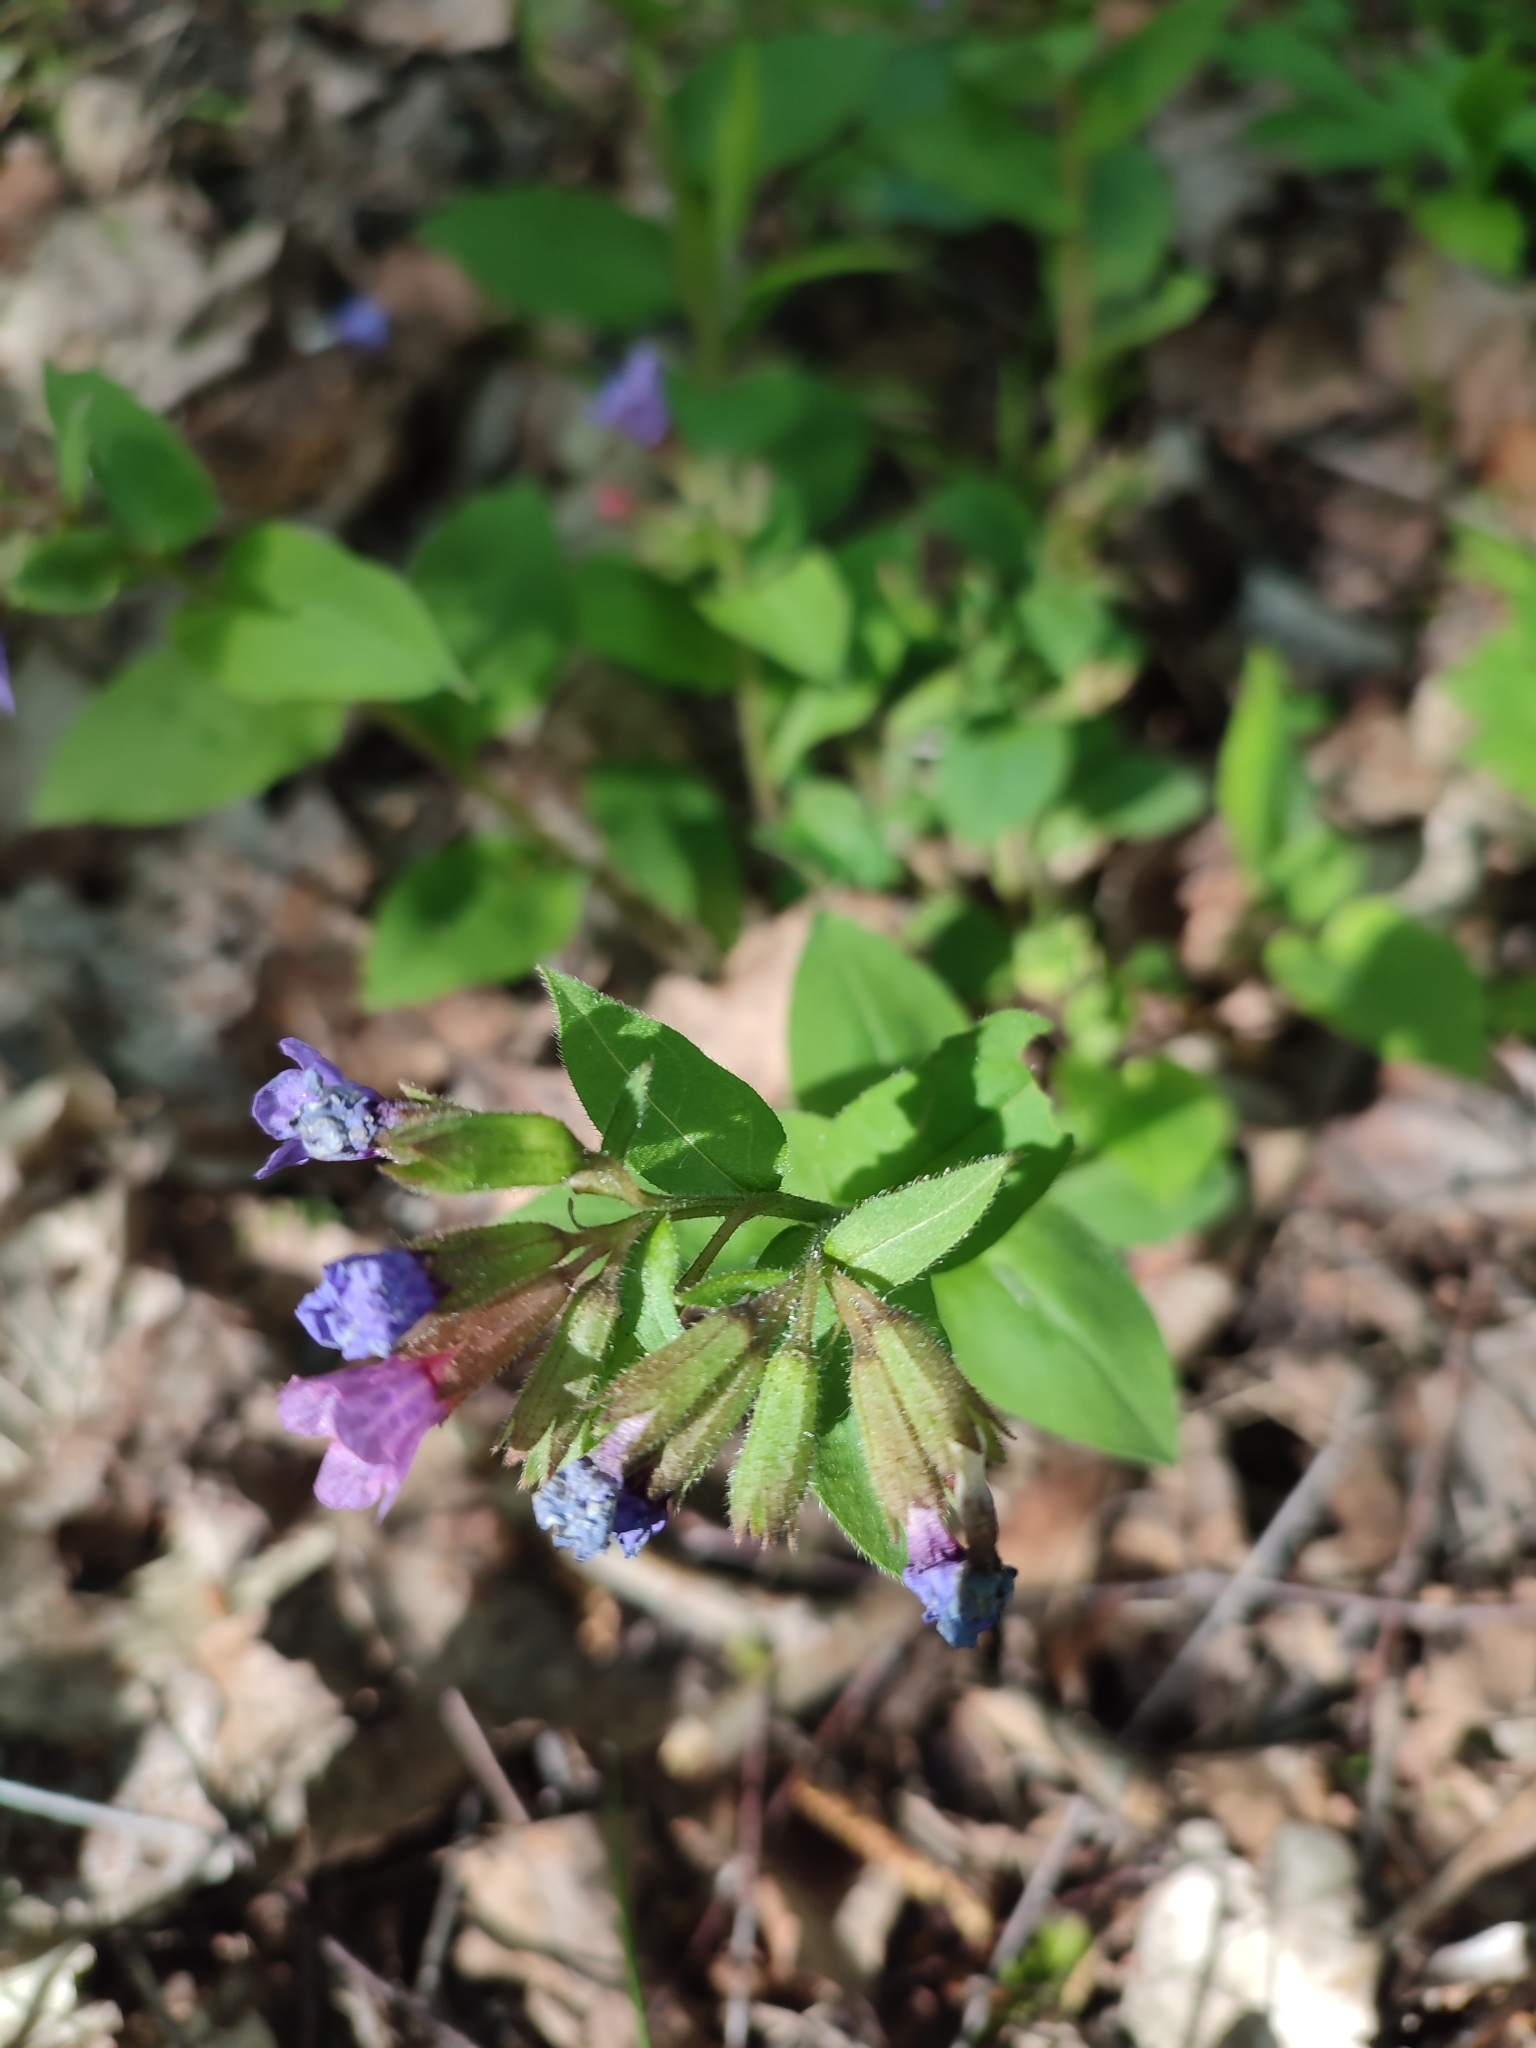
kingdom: Plantae
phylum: Tracheophyta
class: Magnoliopsida
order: Boraginales
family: Boraginaceae
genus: Pulmonaria
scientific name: Pulmonaria obscura
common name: Suffolk lungwort
